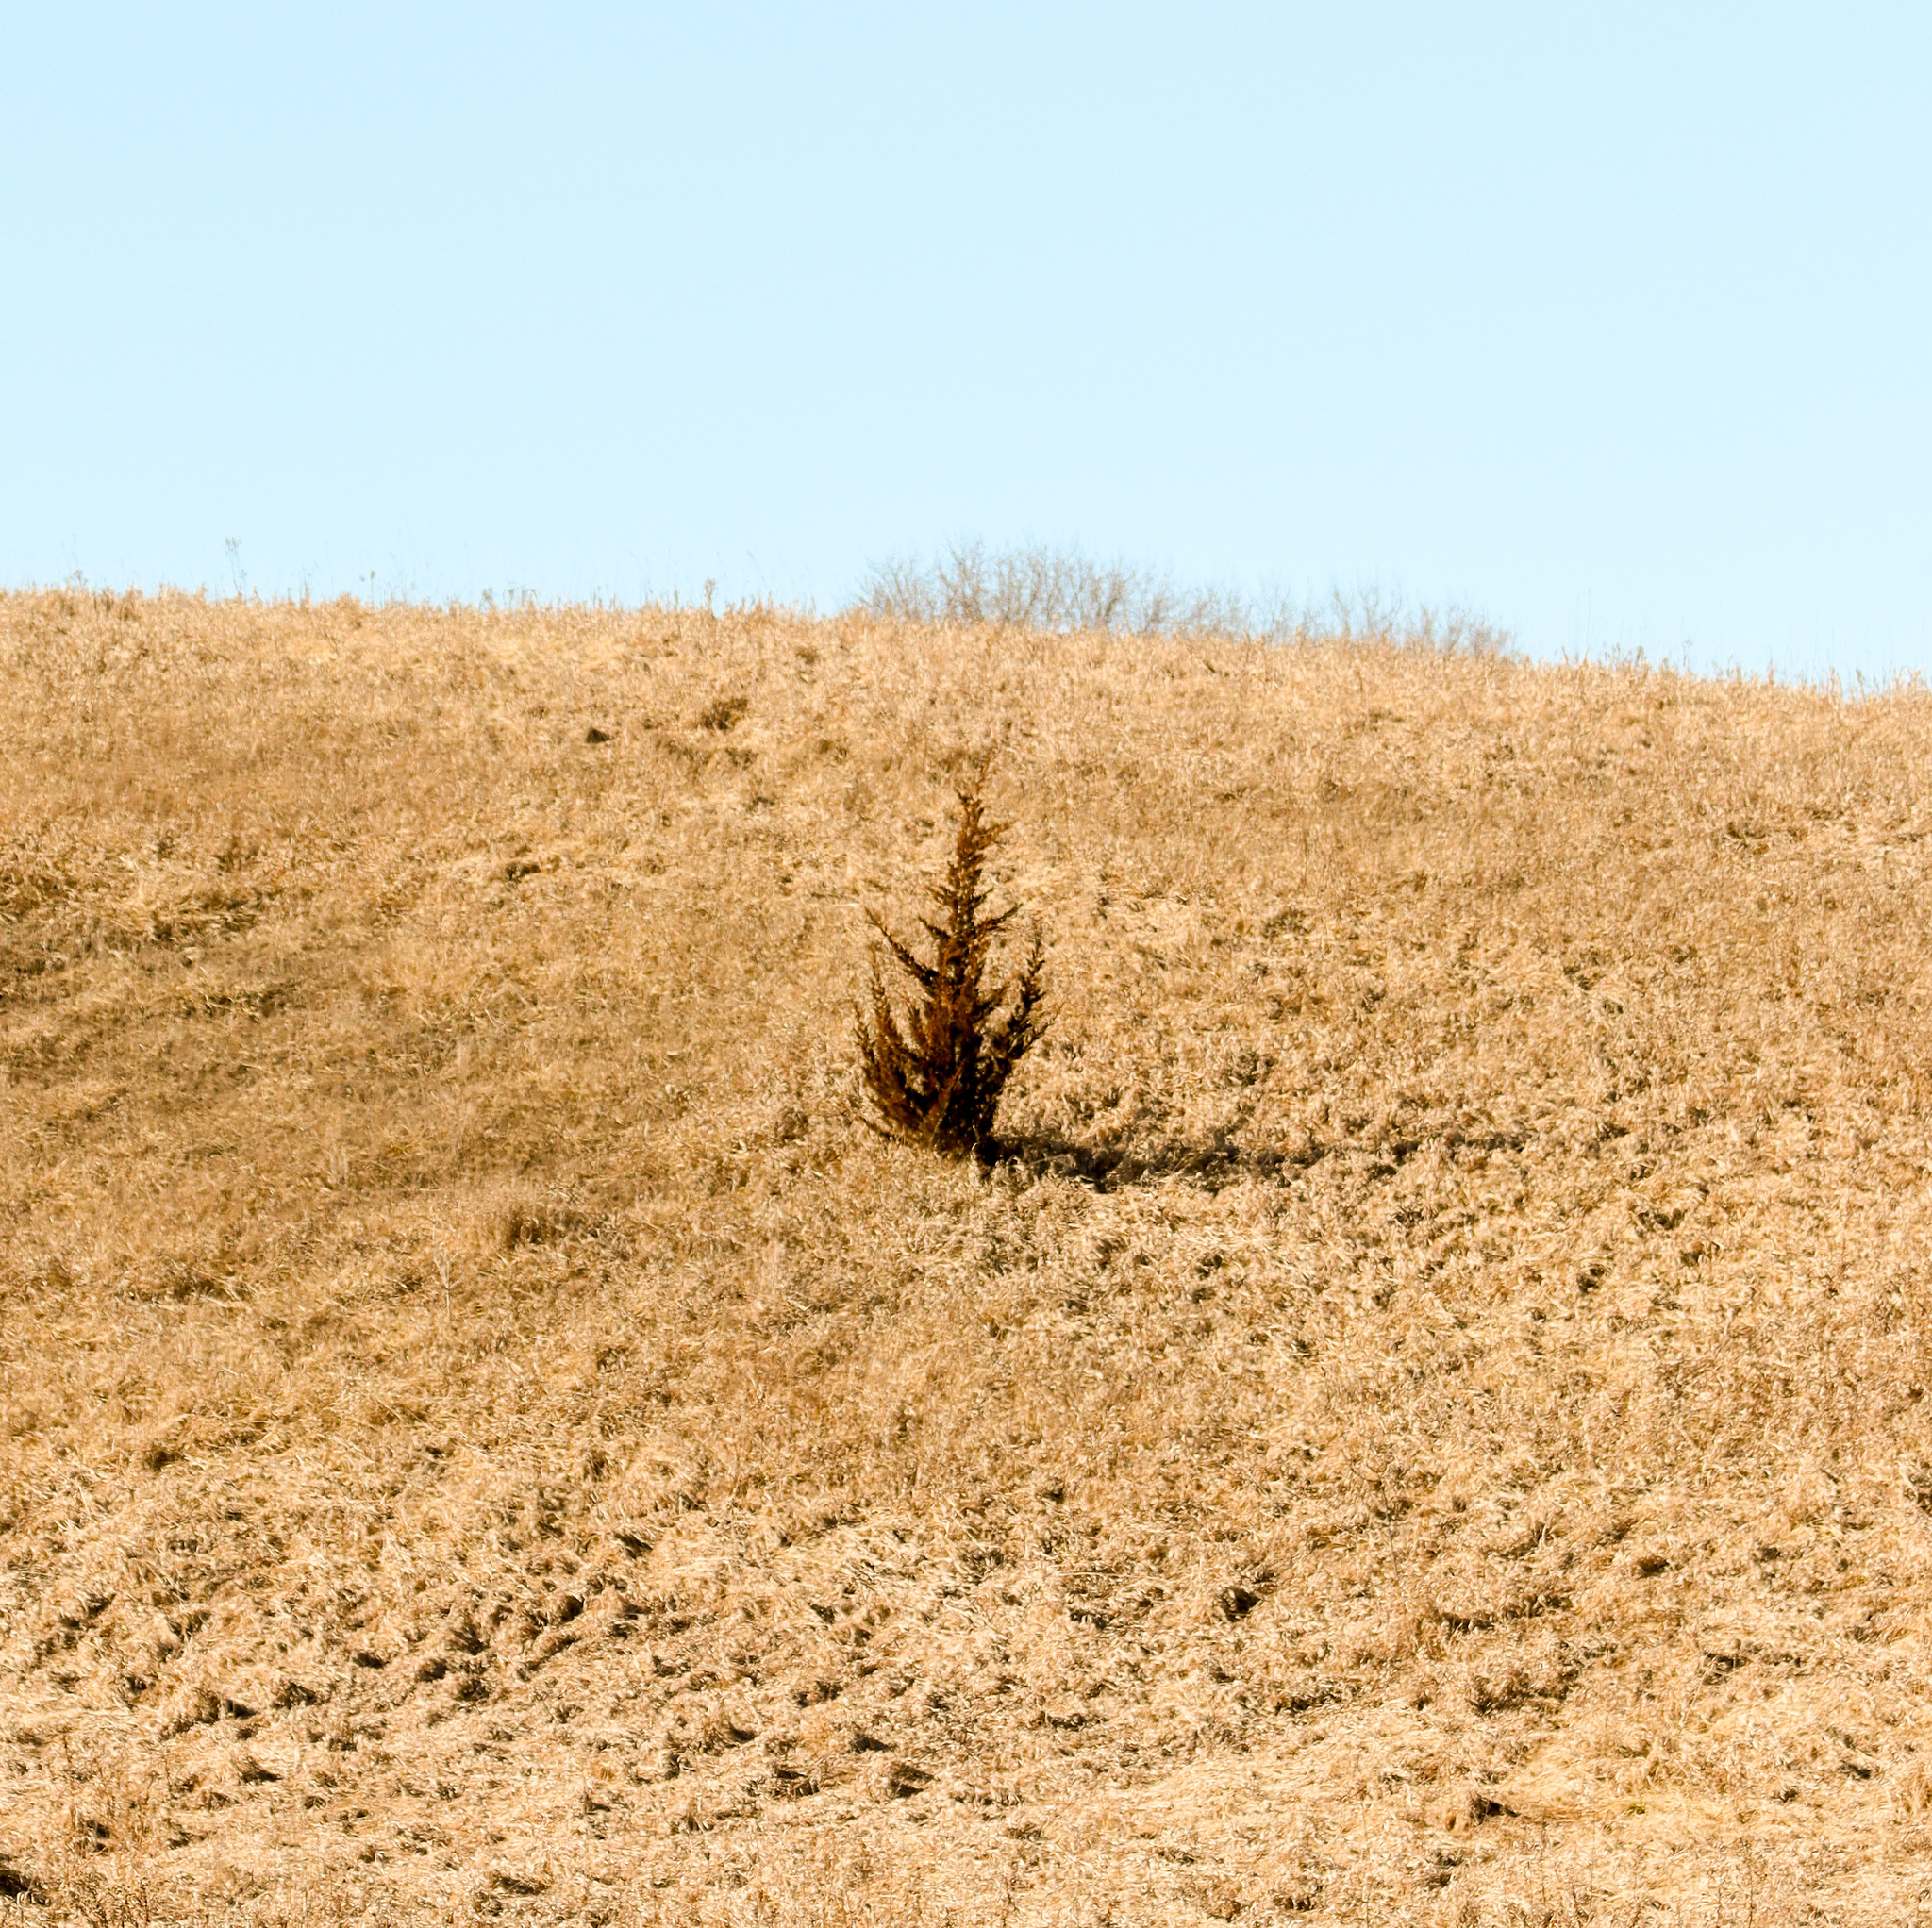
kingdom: Plantae
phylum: Tracheophyta
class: Pinopsida
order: Pinales
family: Cupressaceae
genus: Juniperus
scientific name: Juniperus virginiana
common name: Red juniper
